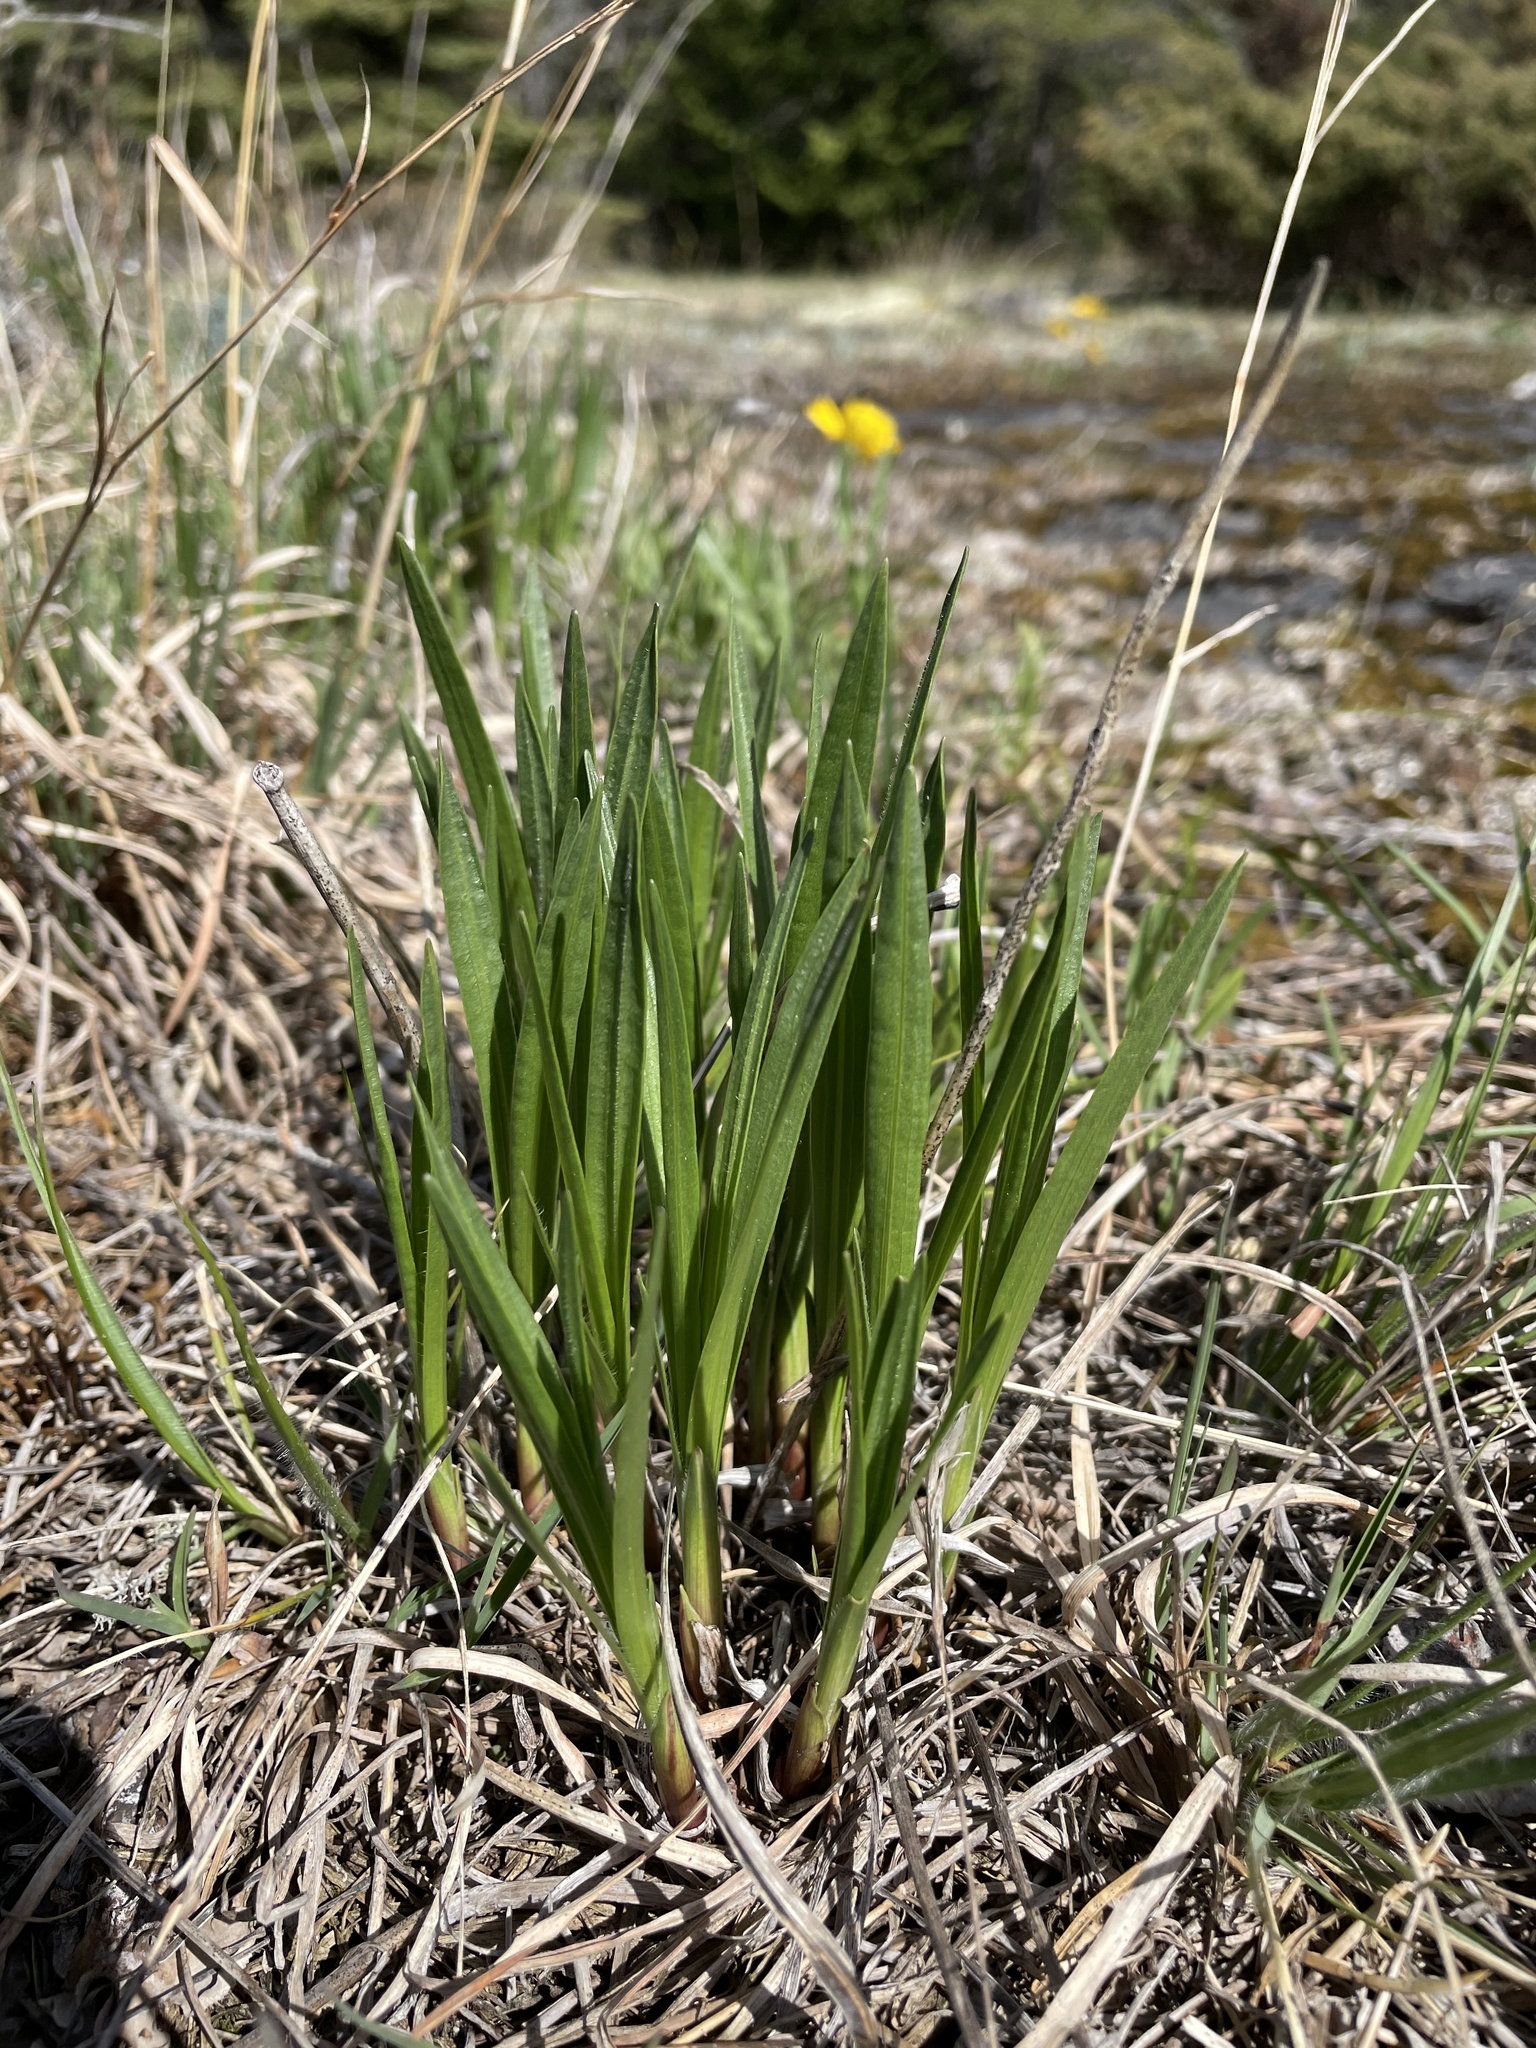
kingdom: Plantae
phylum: Tracheophyta
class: Magnoliopsida
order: Asterales
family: Asteraceae
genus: Liatris
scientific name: Liatris cylindracea
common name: Few-head blazingstar
